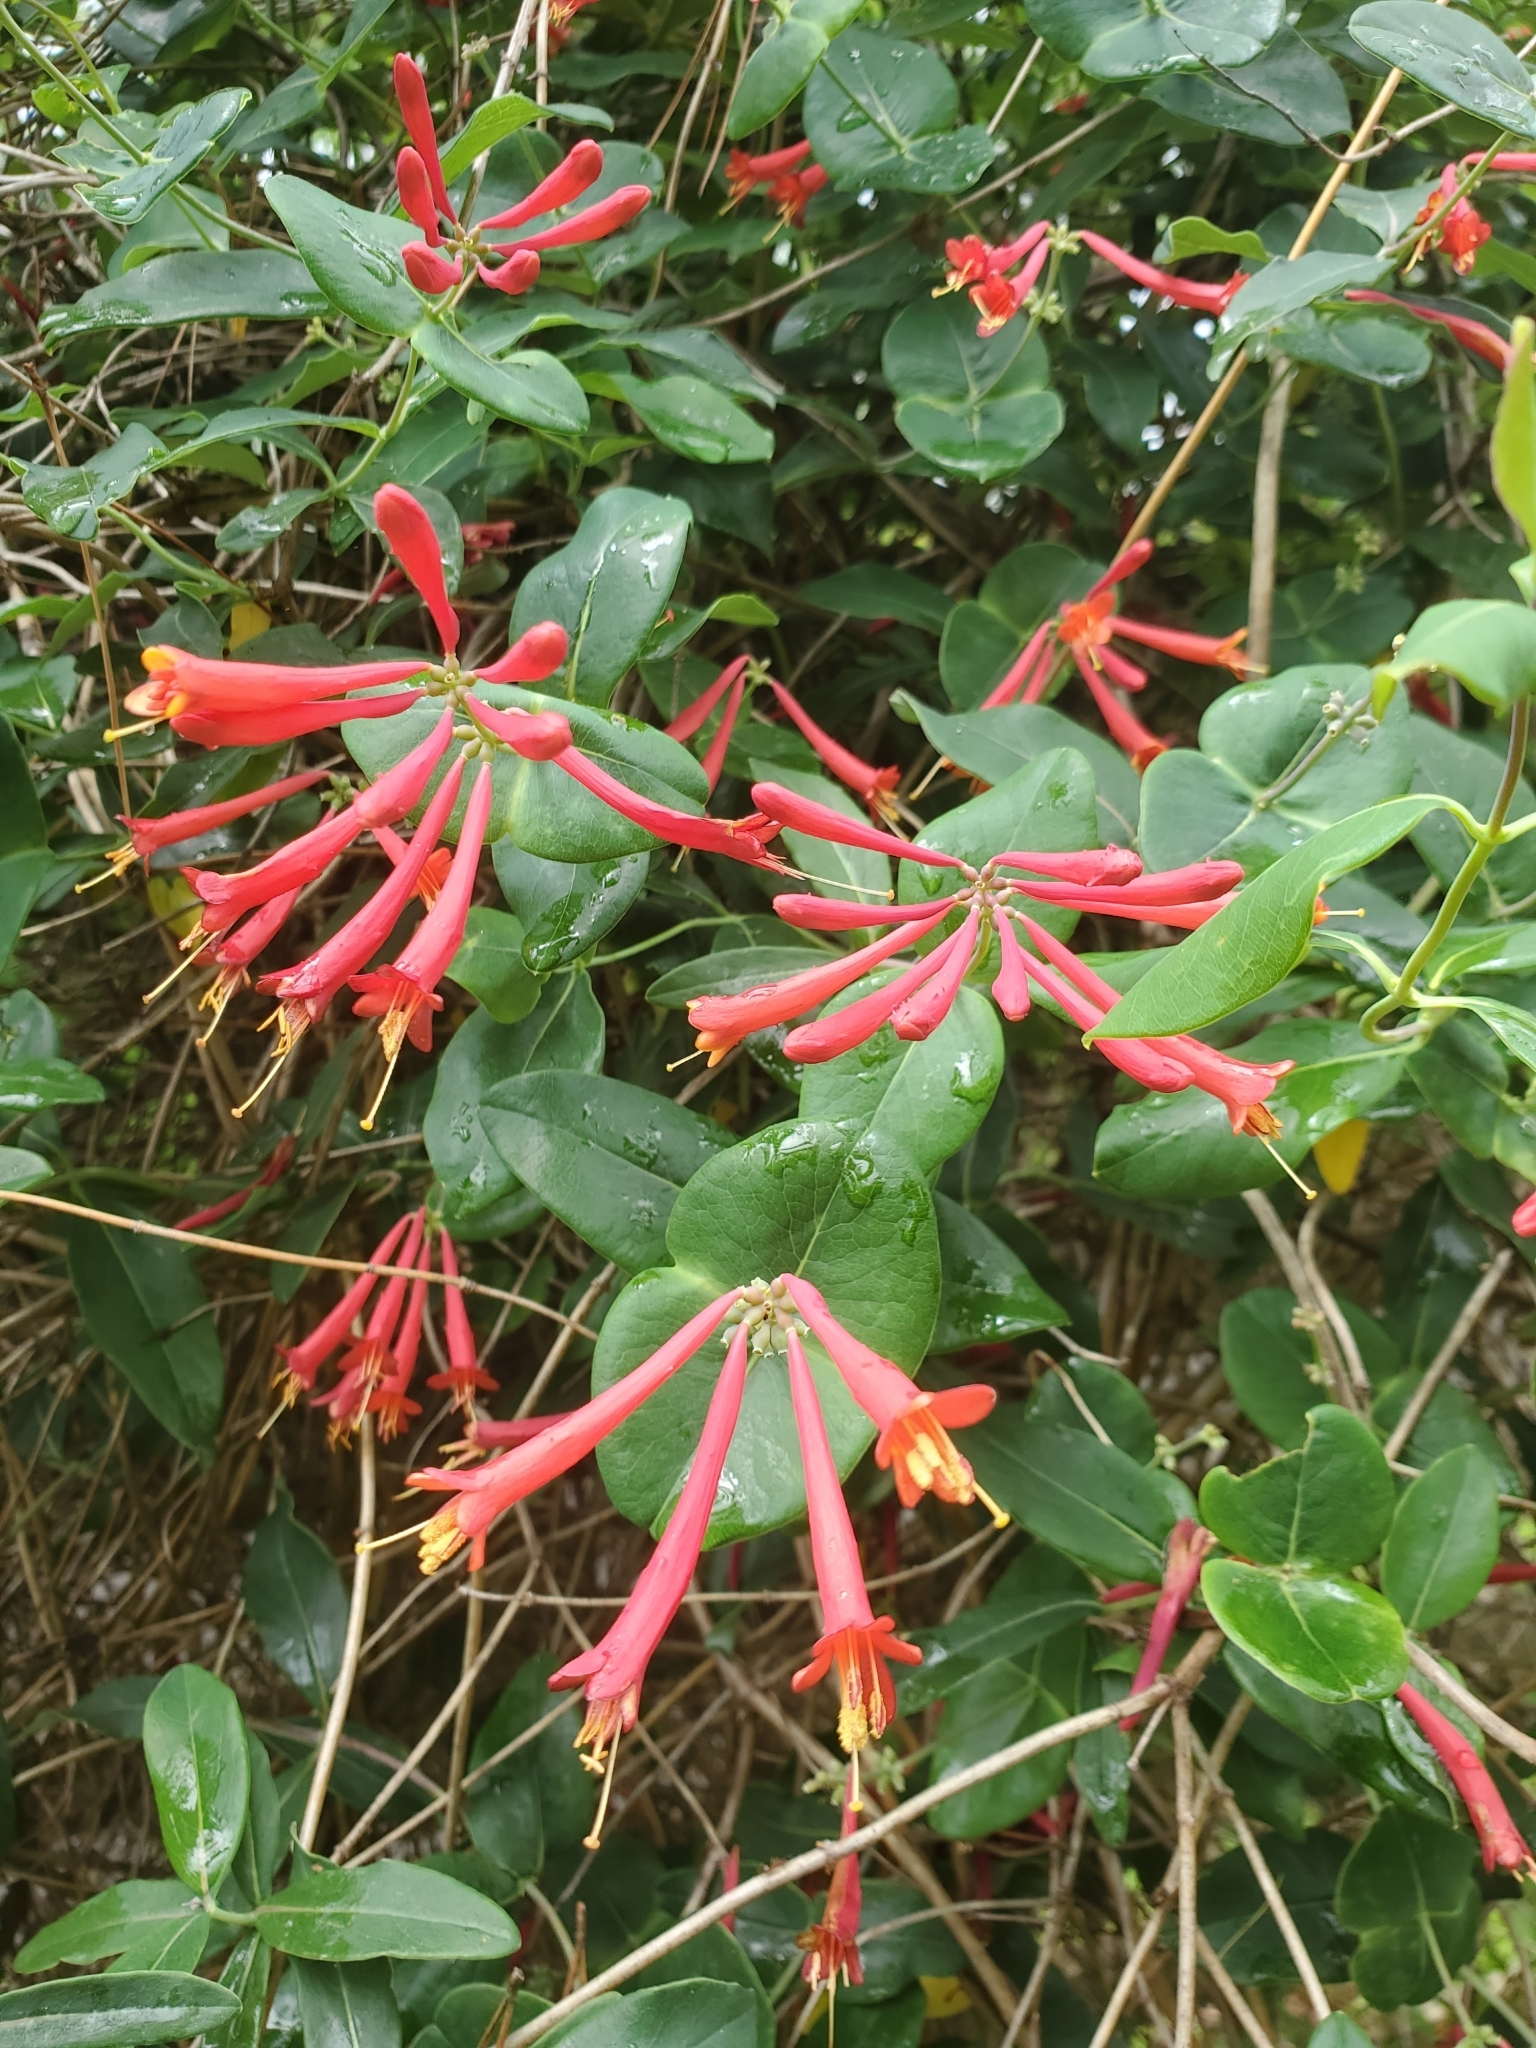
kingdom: Plantae
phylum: Tracheophyta
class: Magnoliopsida
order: Dipsacales
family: Caprifoliaceae
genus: Lonicera
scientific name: Lonicera sempervirens
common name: Coral honeysuckle
